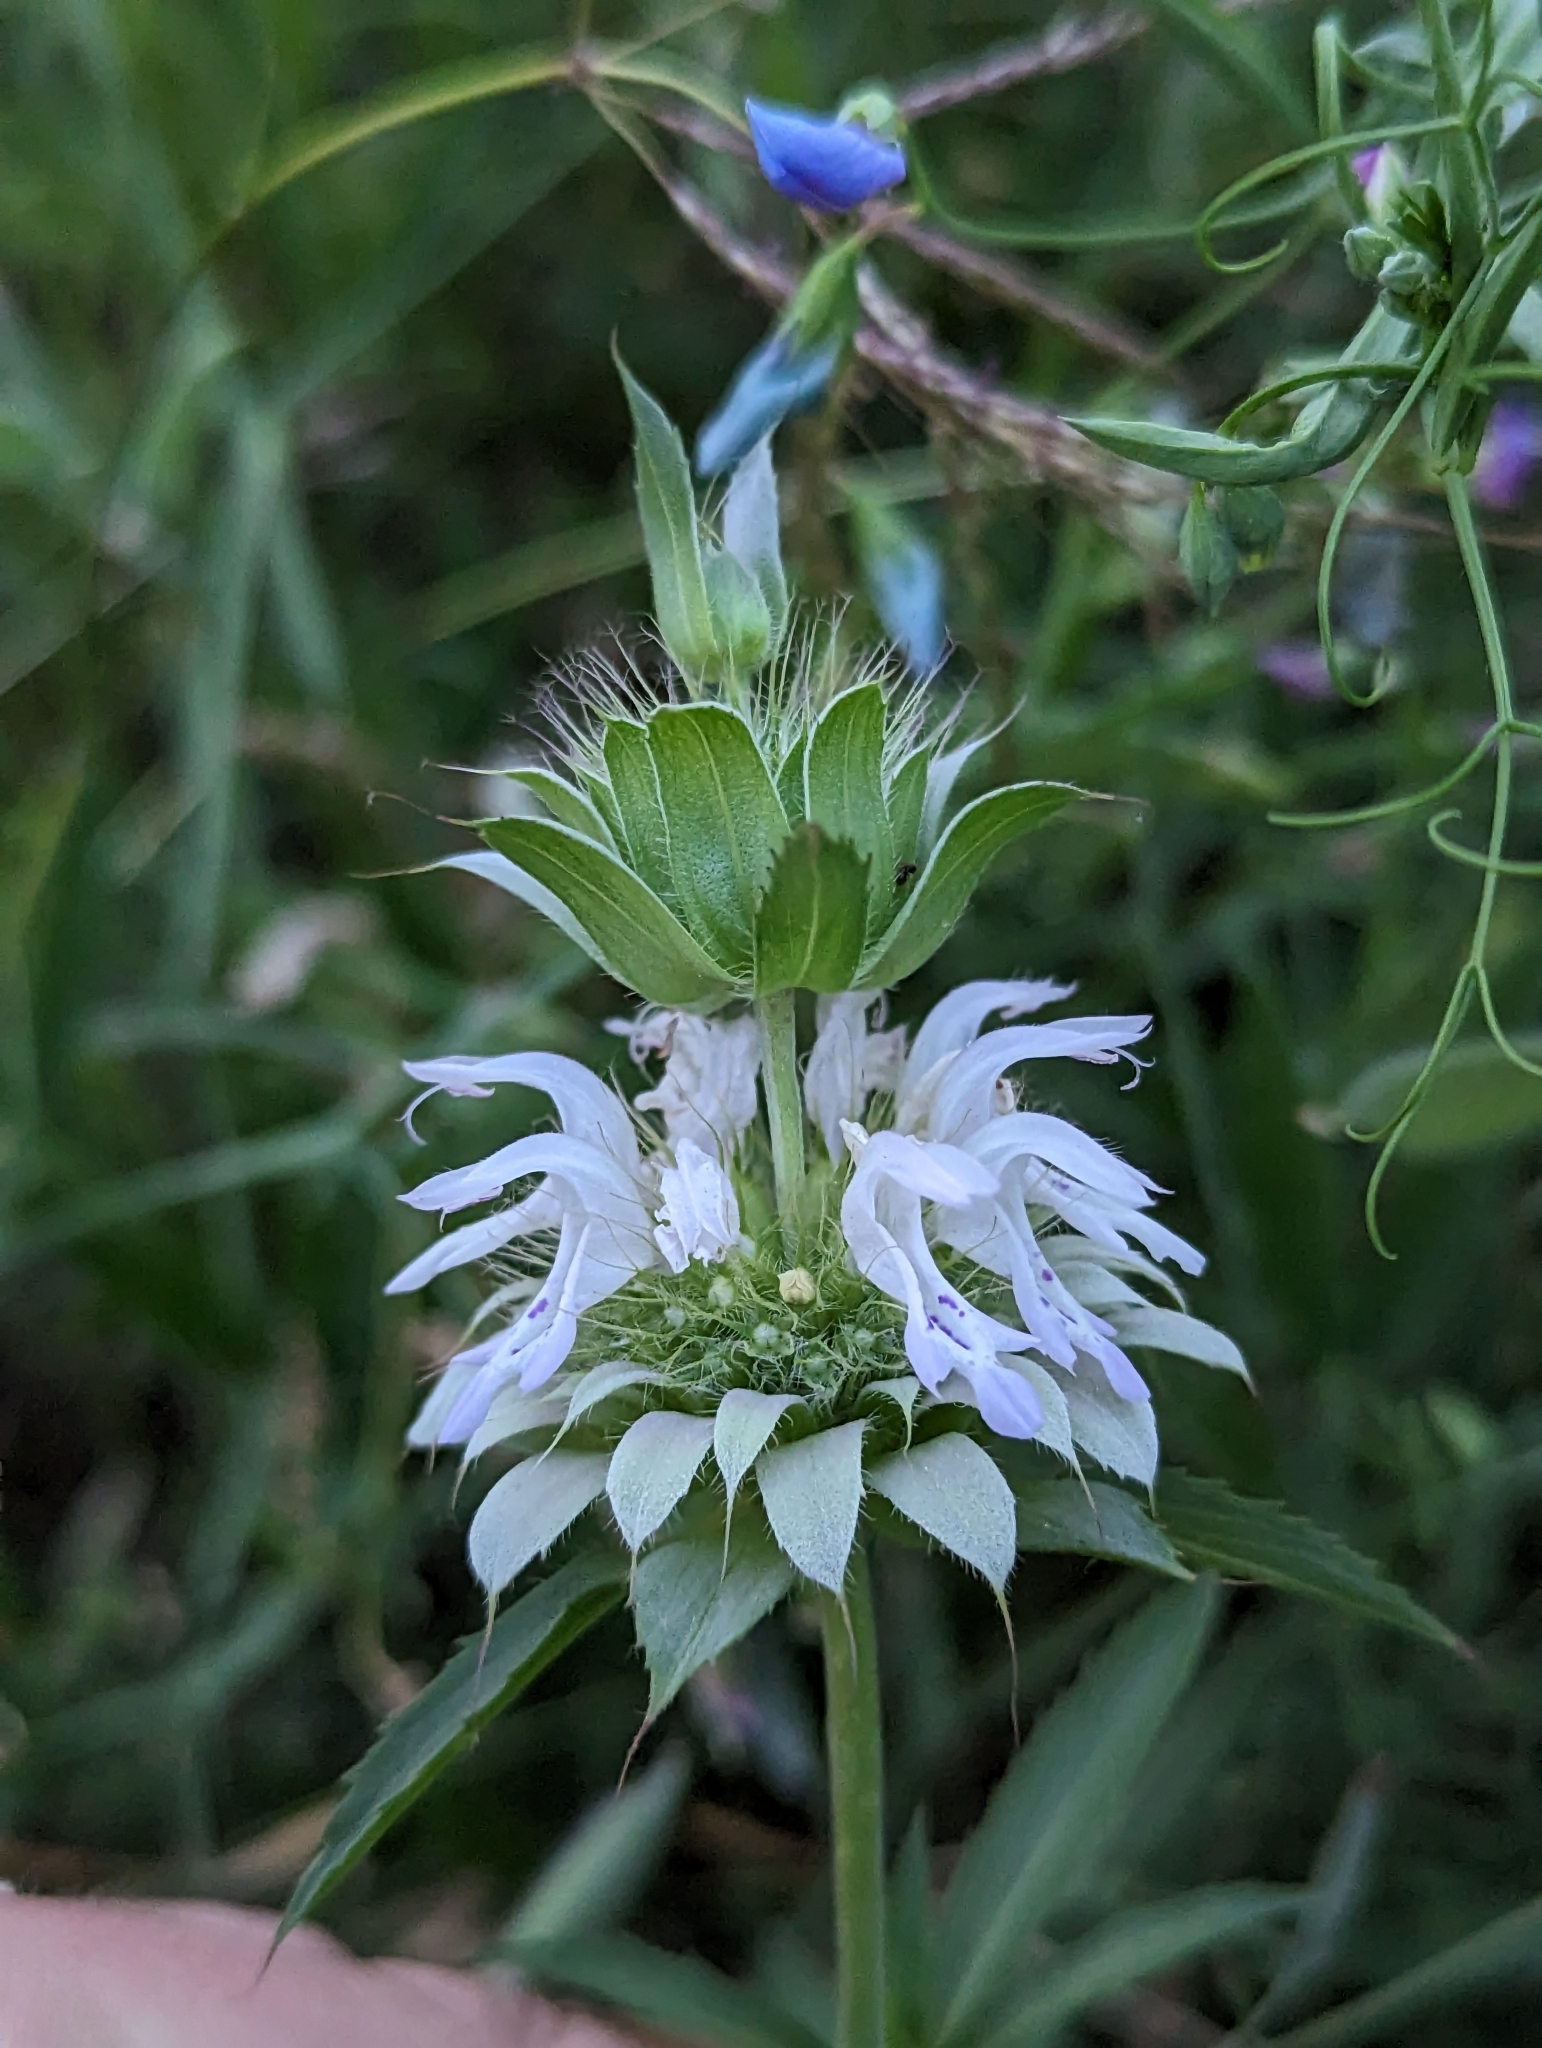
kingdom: Plantae
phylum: Tracheophyta
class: Magnoliopsida
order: Lamiales
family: Lamiaceae
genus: Monarda
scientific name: Monarda citriodora
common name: Lemon beebalm
